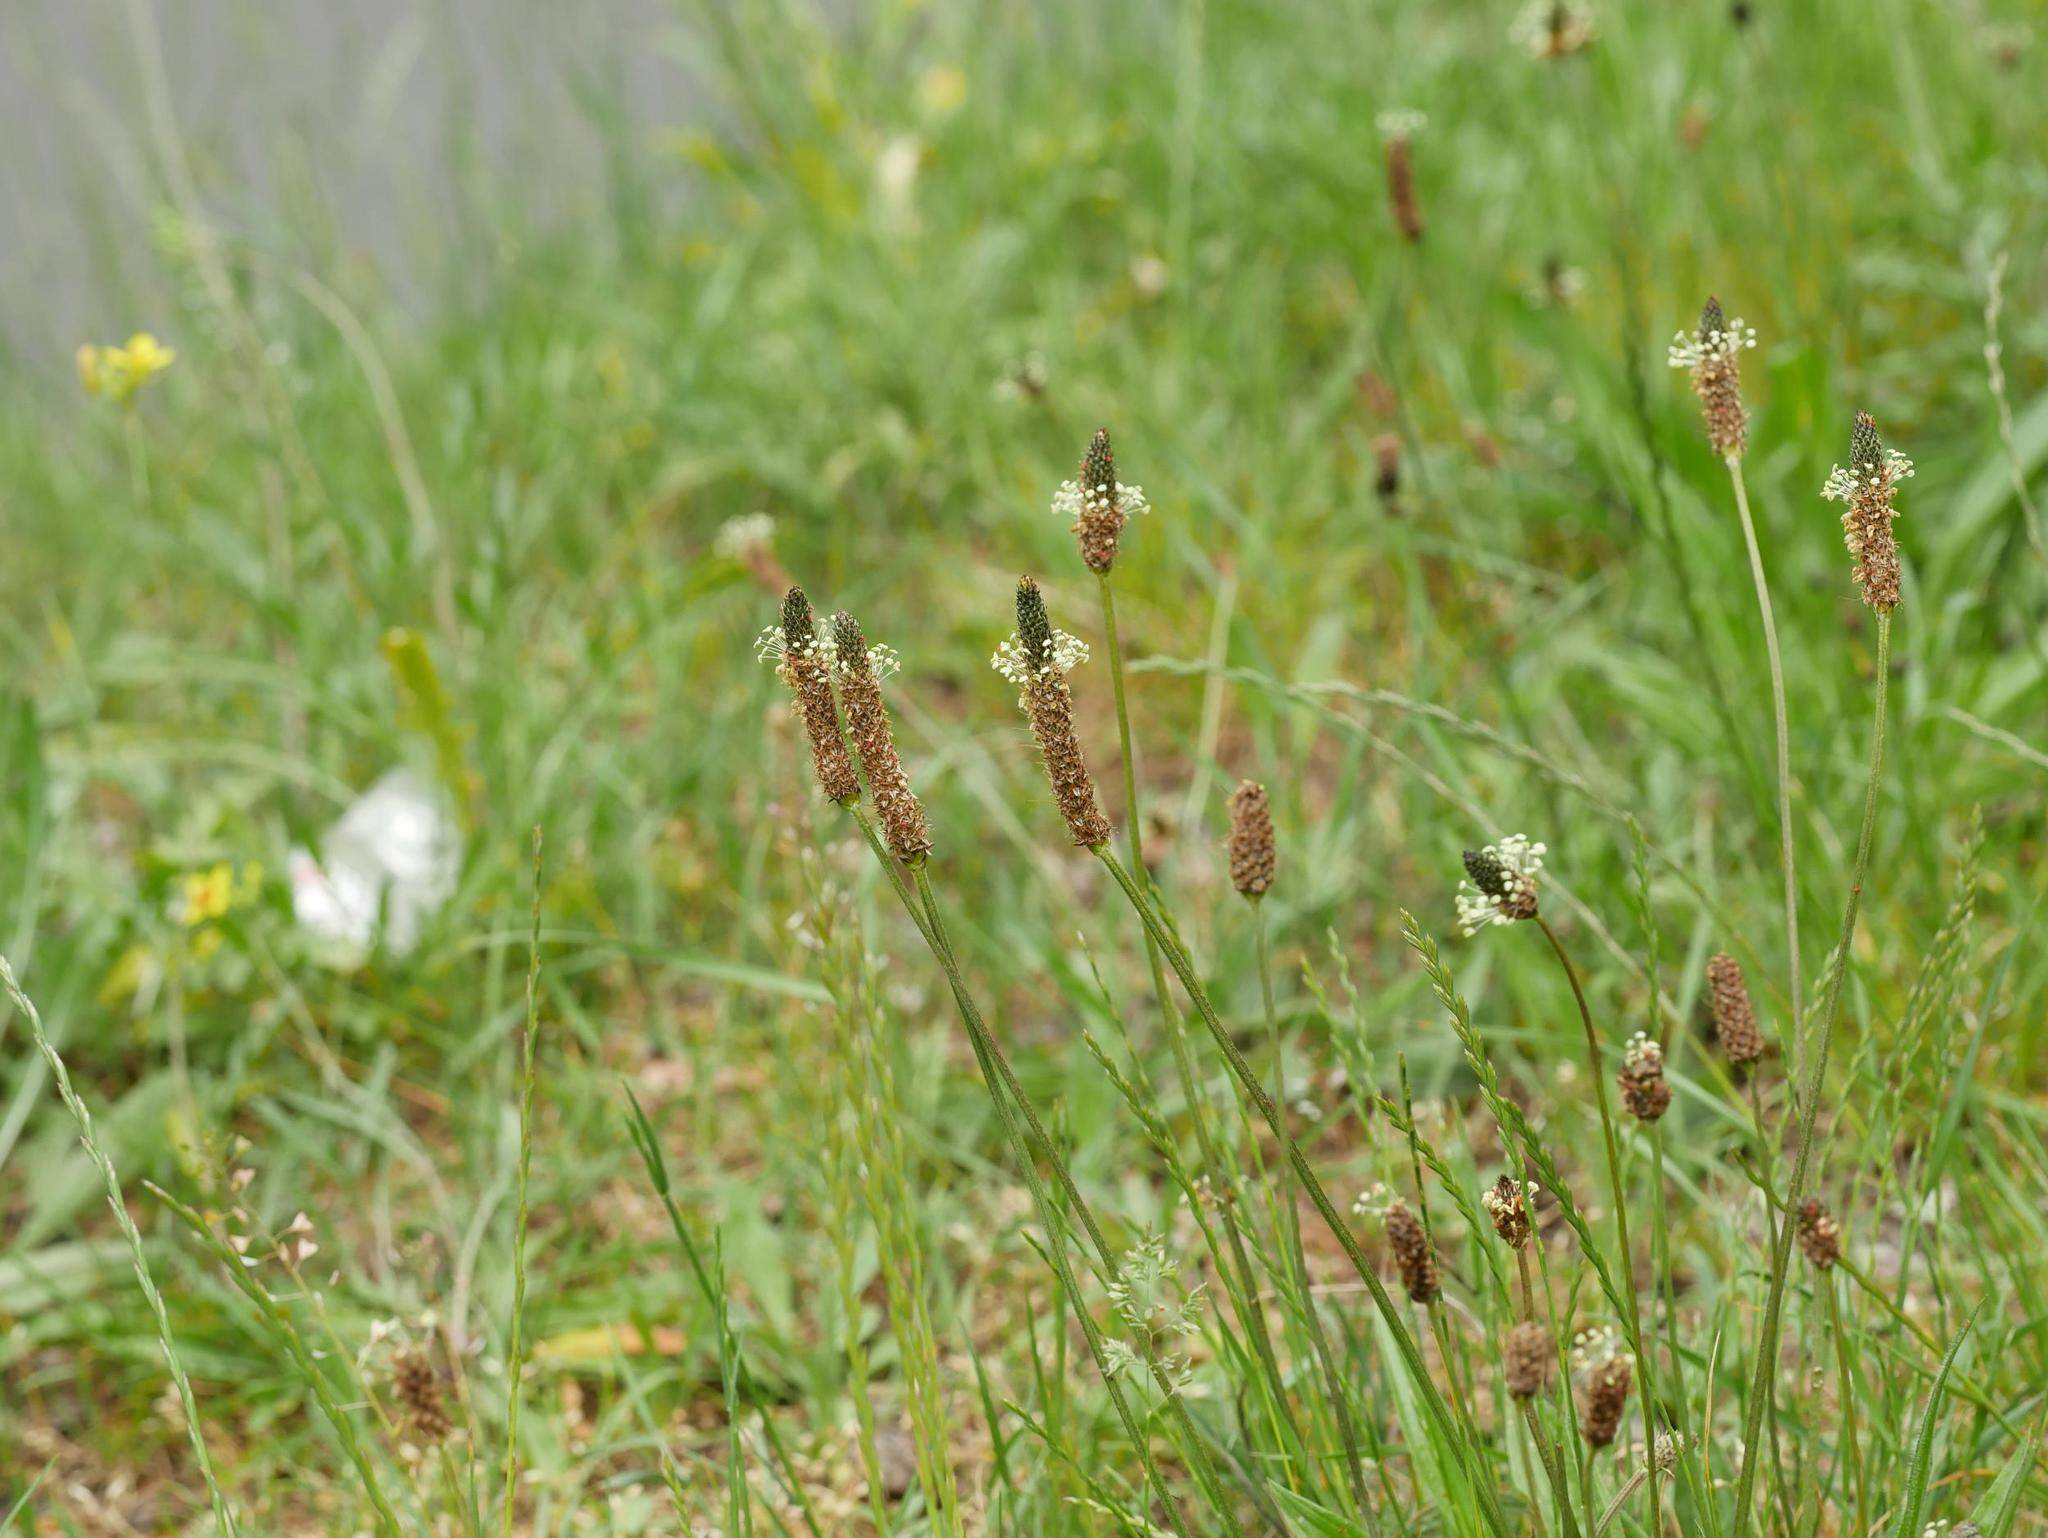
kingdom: Plantae
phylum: Tracheophyta
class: Magnoliopsida
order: Lamiales
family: Plantaginaceae
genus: Plantago
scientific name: Plantago lanceolata
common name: Ribwort plantain
